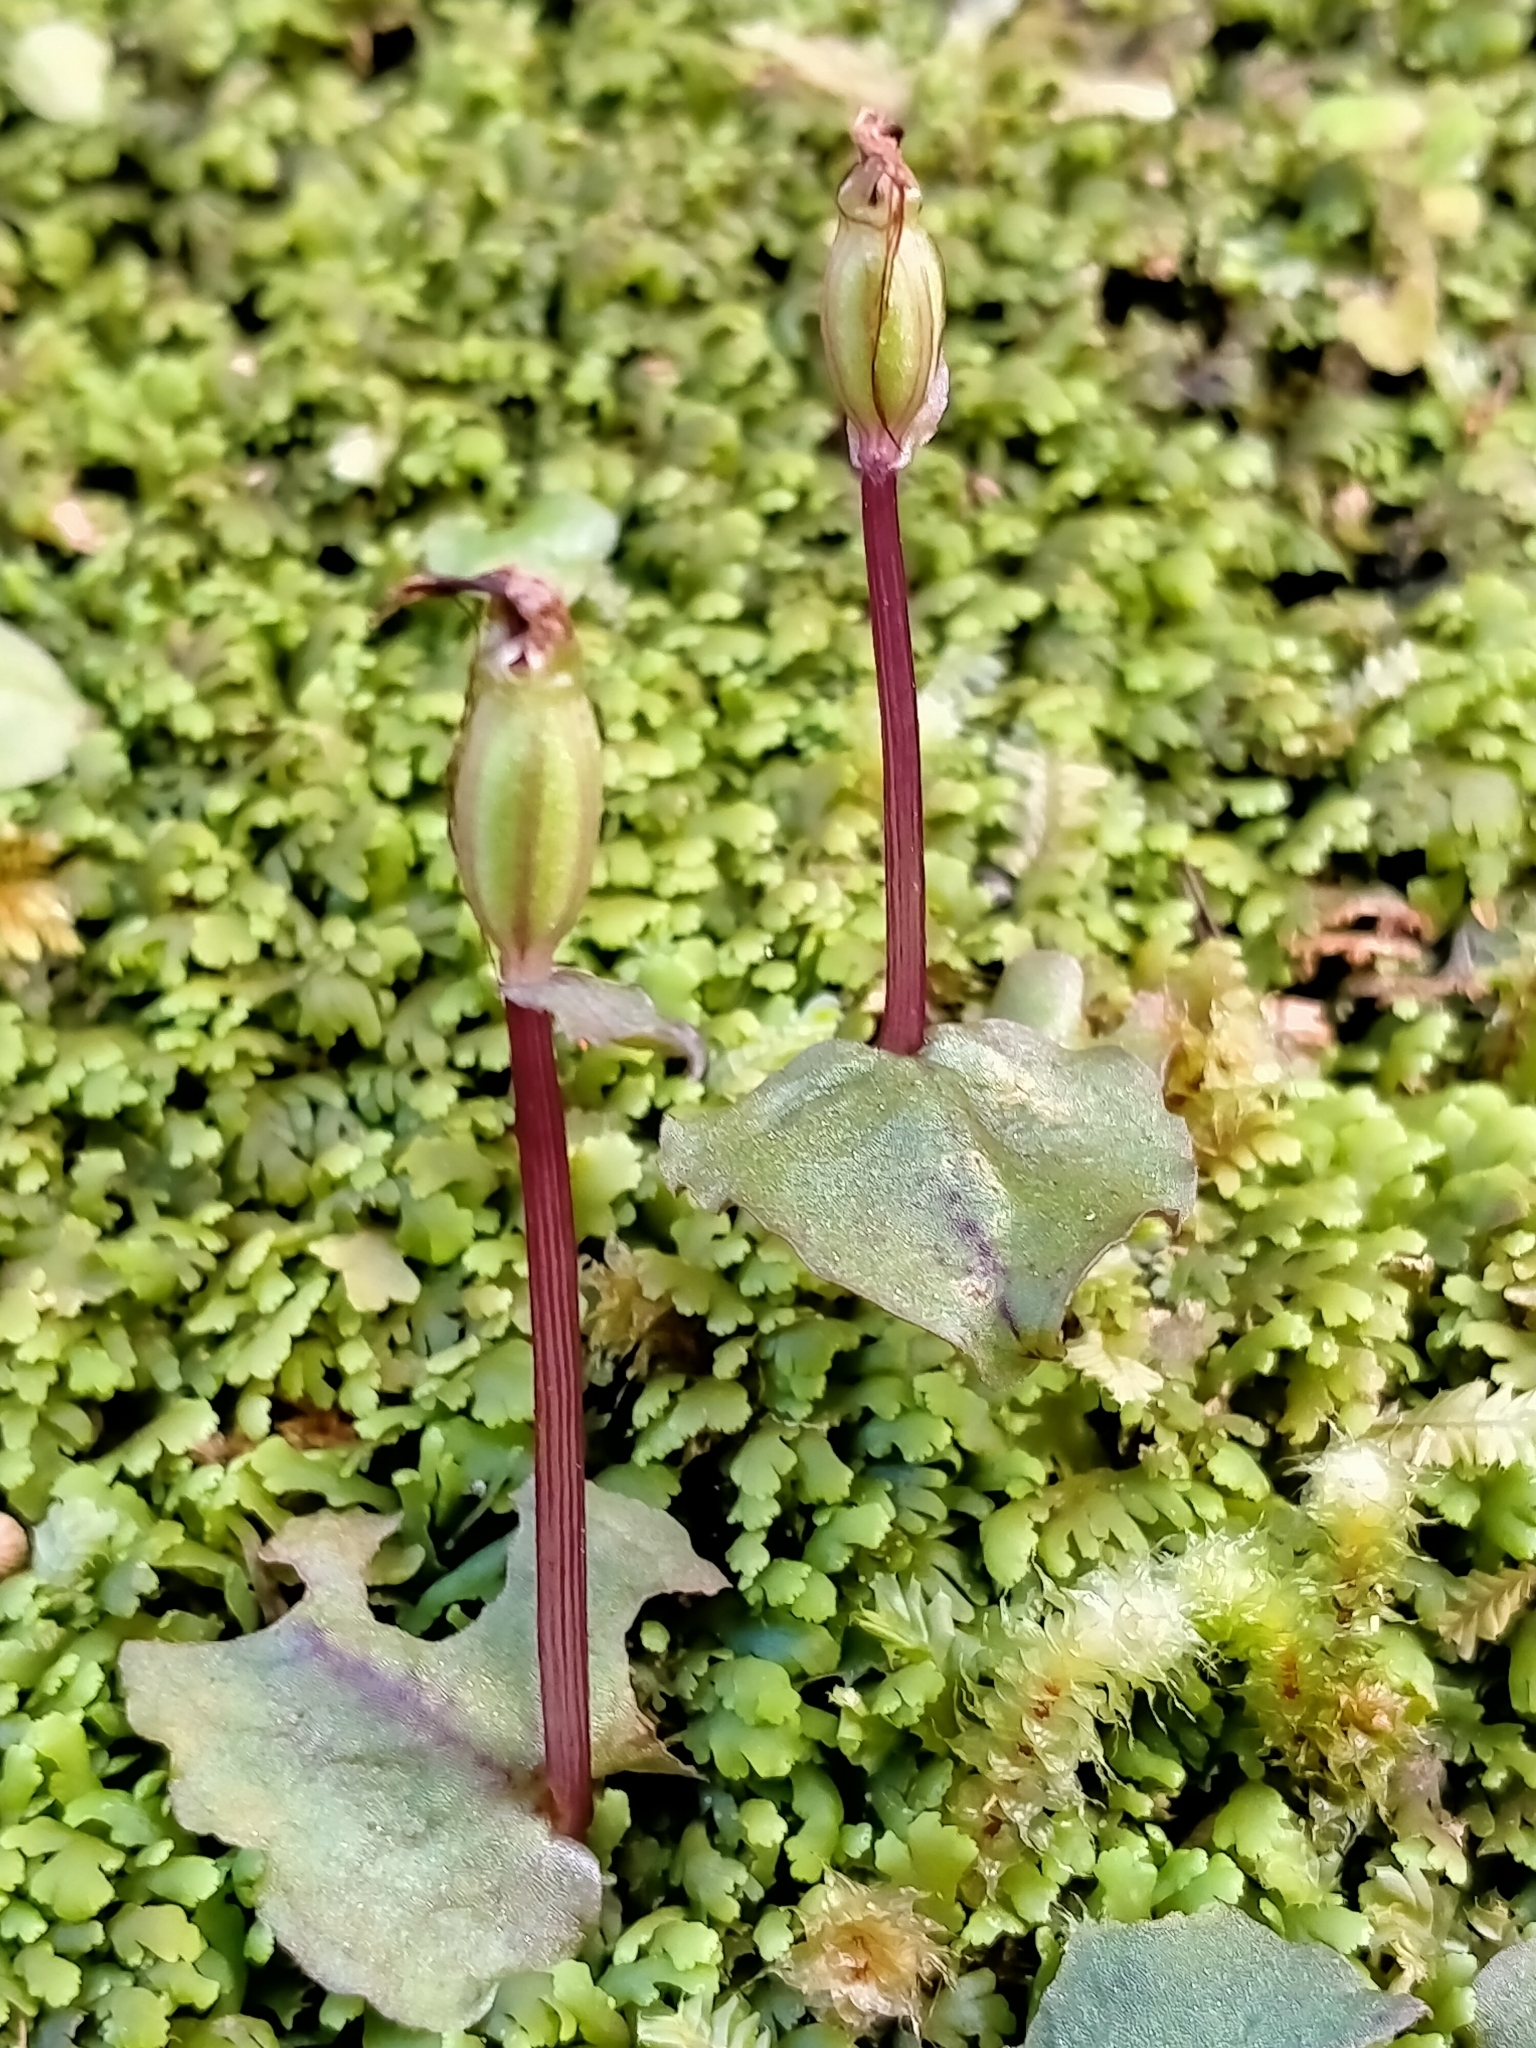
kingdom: Plantae
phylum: Tracheophyta
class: Liliopsida
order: Asparagales
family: Orchidaceae
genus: Corybas
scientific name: Corybas oblongus
